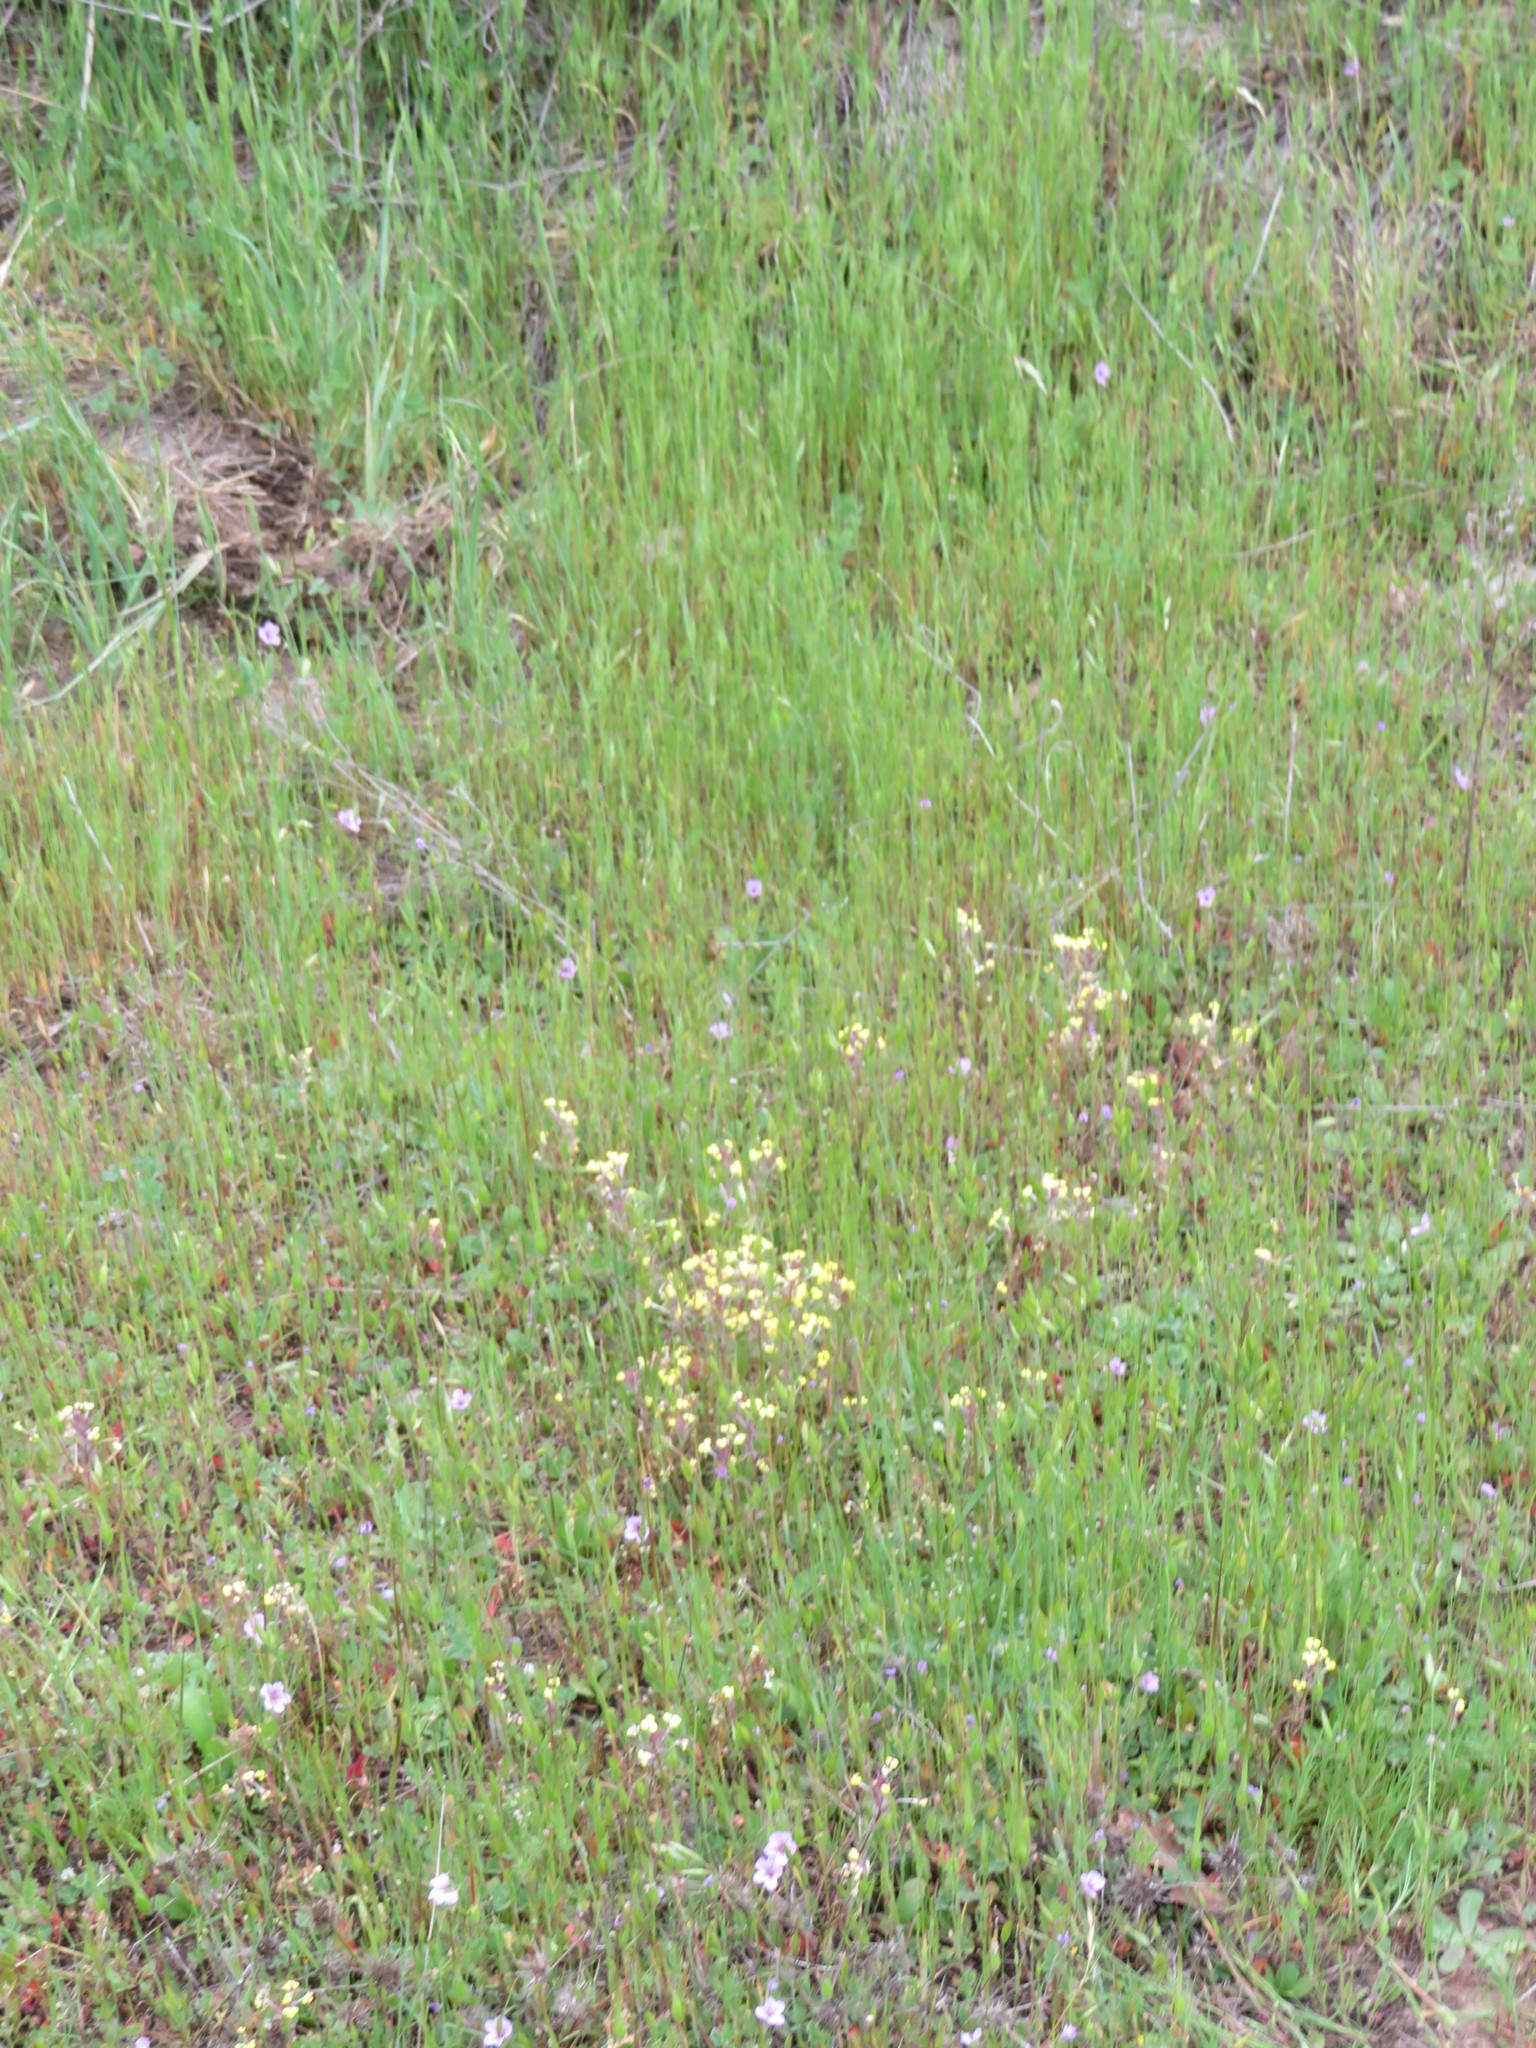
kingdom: Plantae
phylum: Tracheophyta
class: Magnoliopsida
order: Lamiales
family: Orobanchaceae
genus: Triphysaria
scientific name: Triphysaria eriantha
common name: Johnny-tuck
